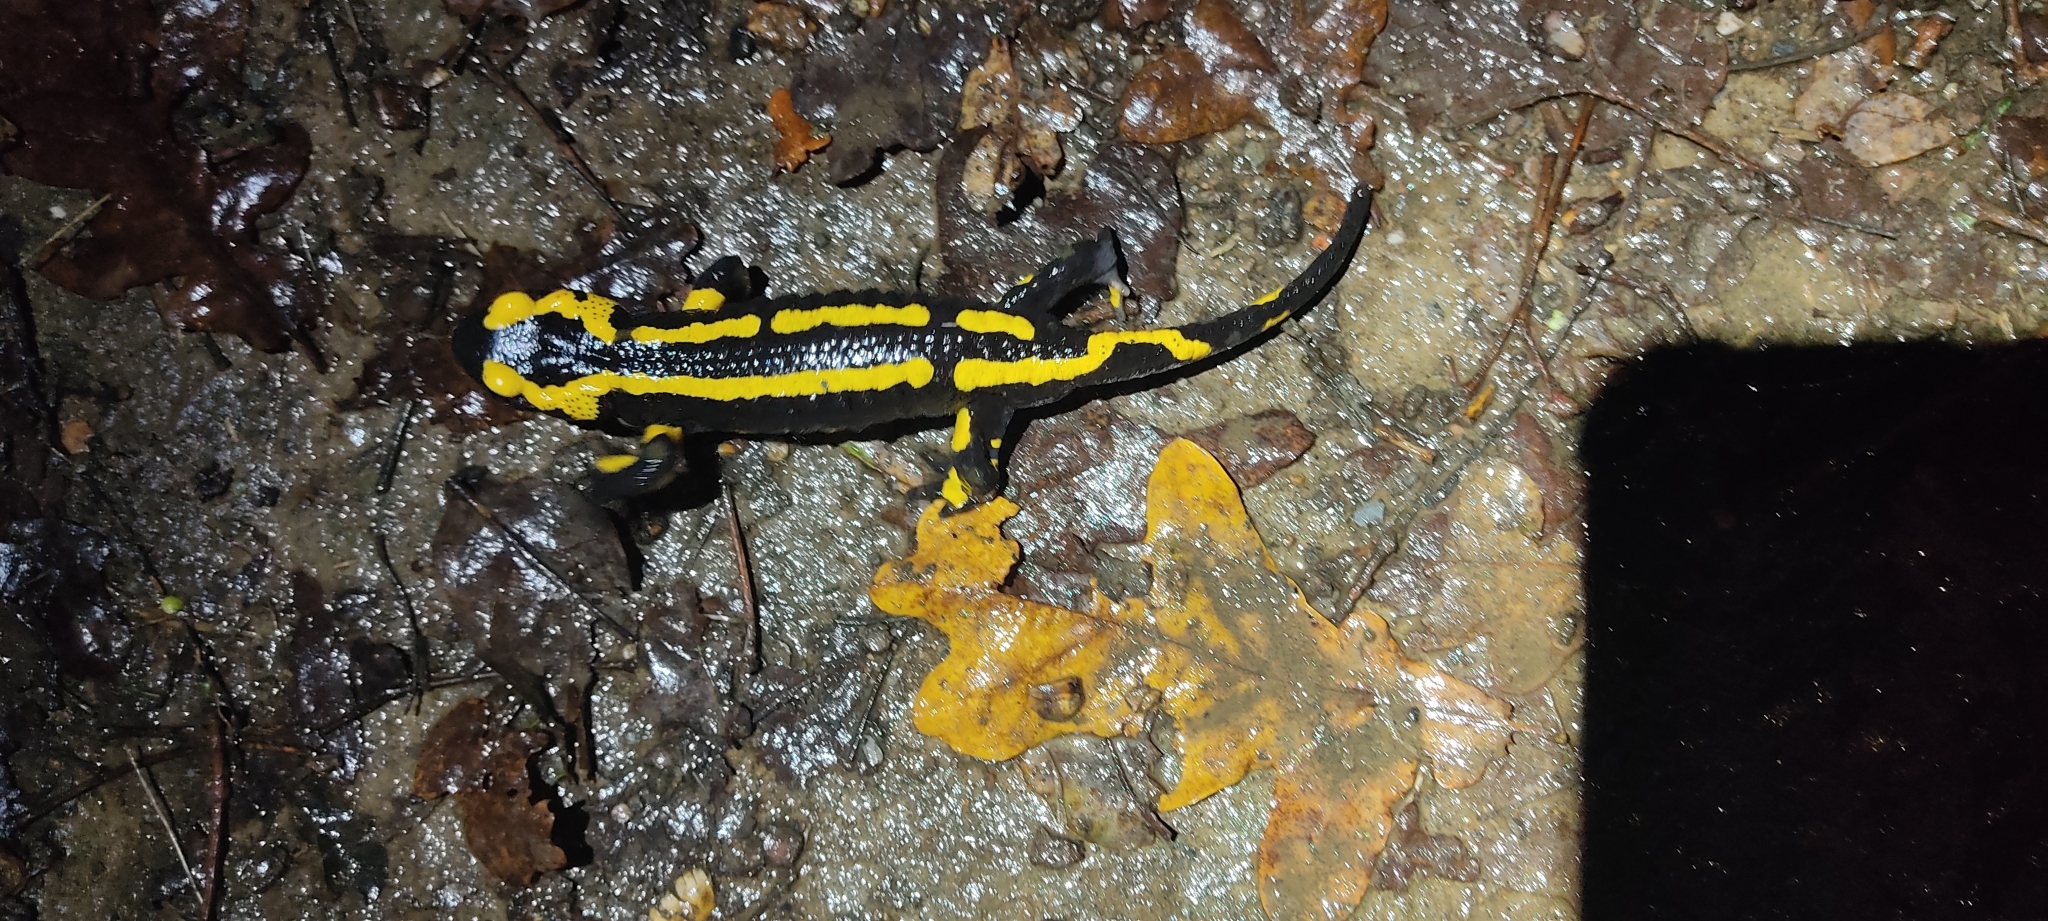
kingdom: Animalia
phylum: Chordata
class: Amphibia
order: Caudata
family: Salamandridae
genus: Salamandra
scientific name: Salamandra salamandra
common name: Fire salamander
